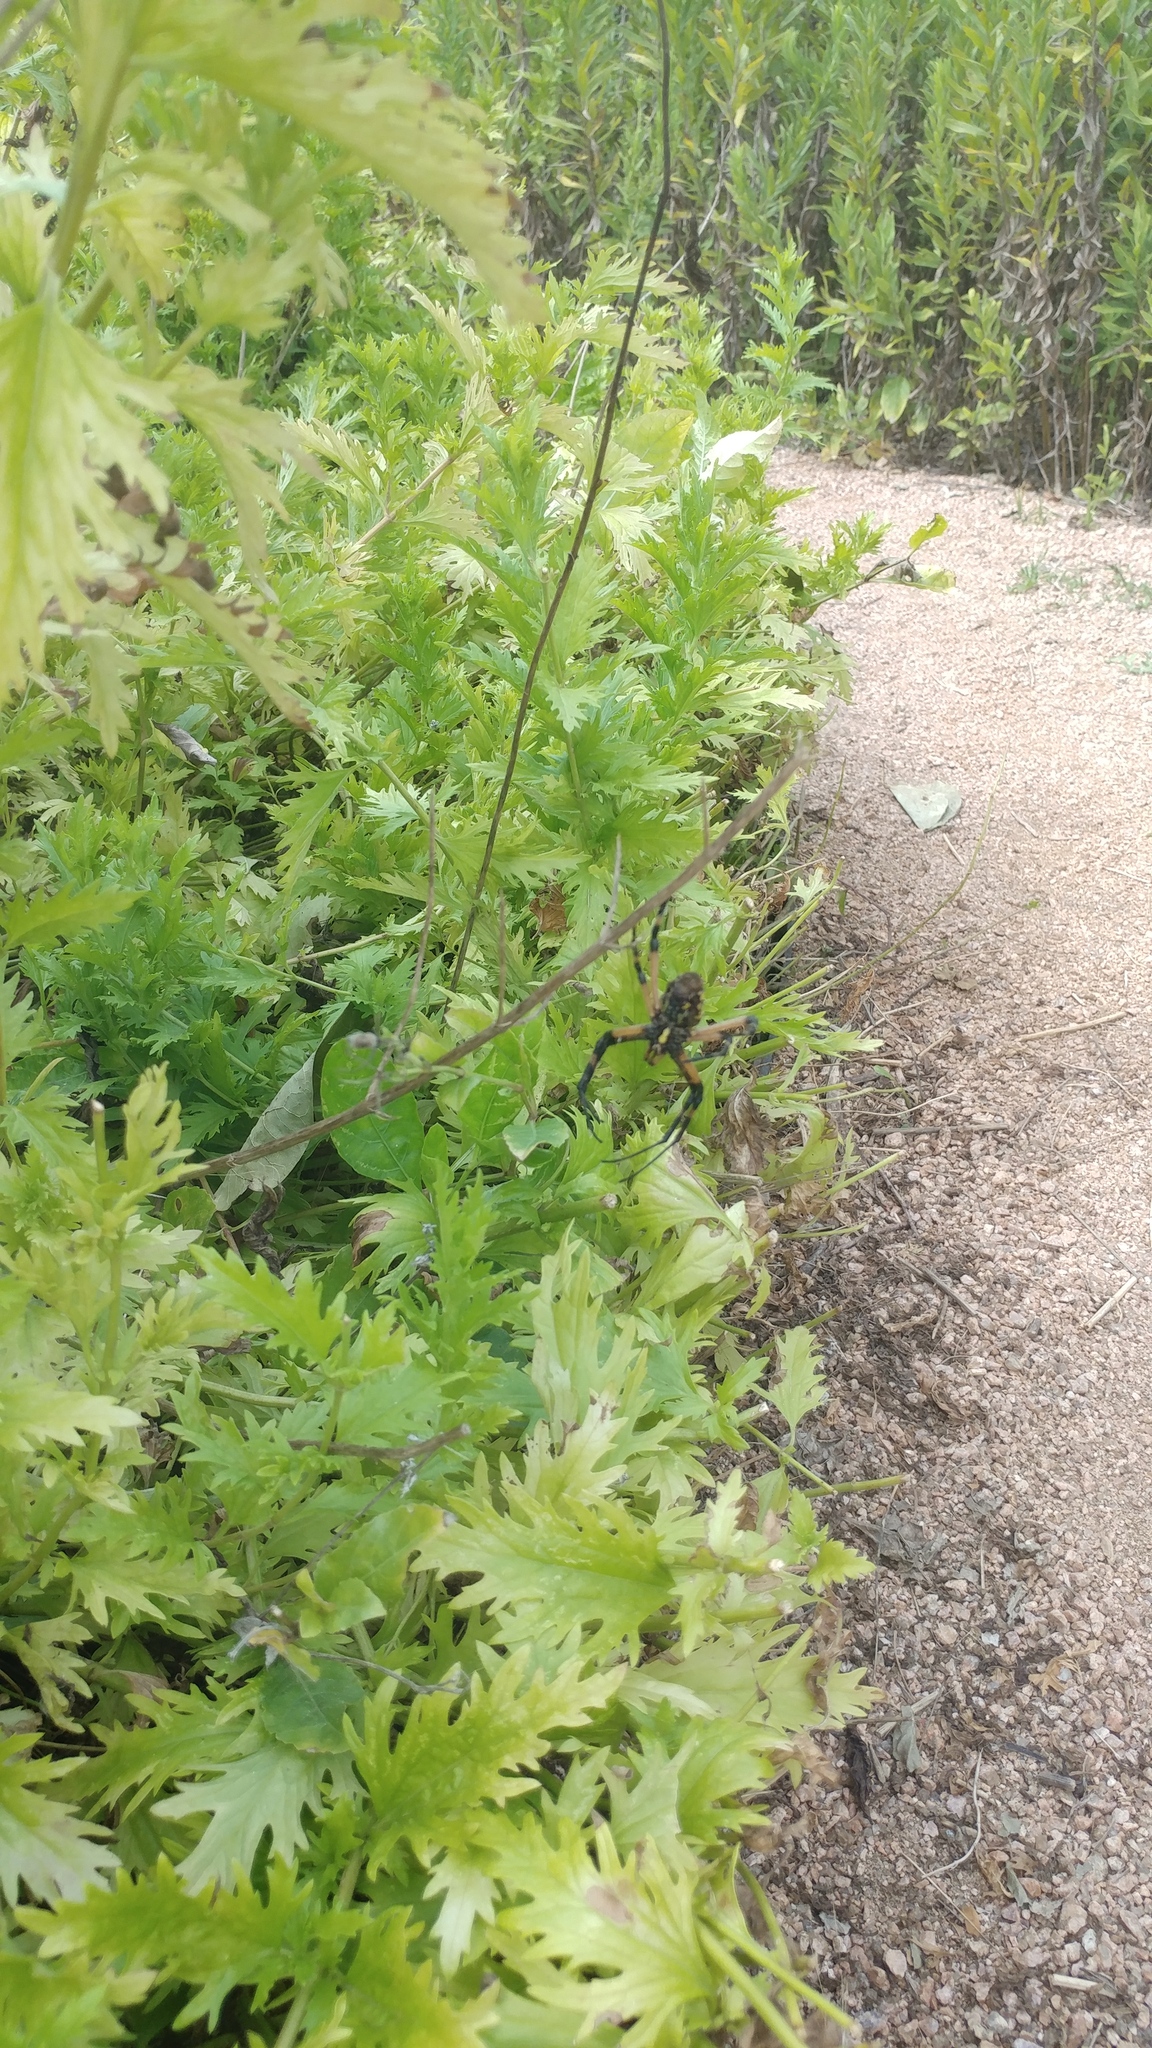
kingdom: Animalia
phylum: Arthropoda
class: Arachnida
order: Araneae
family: Araneidae
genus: Argiope
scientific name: Argiope aurantia
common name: Orb weavers
